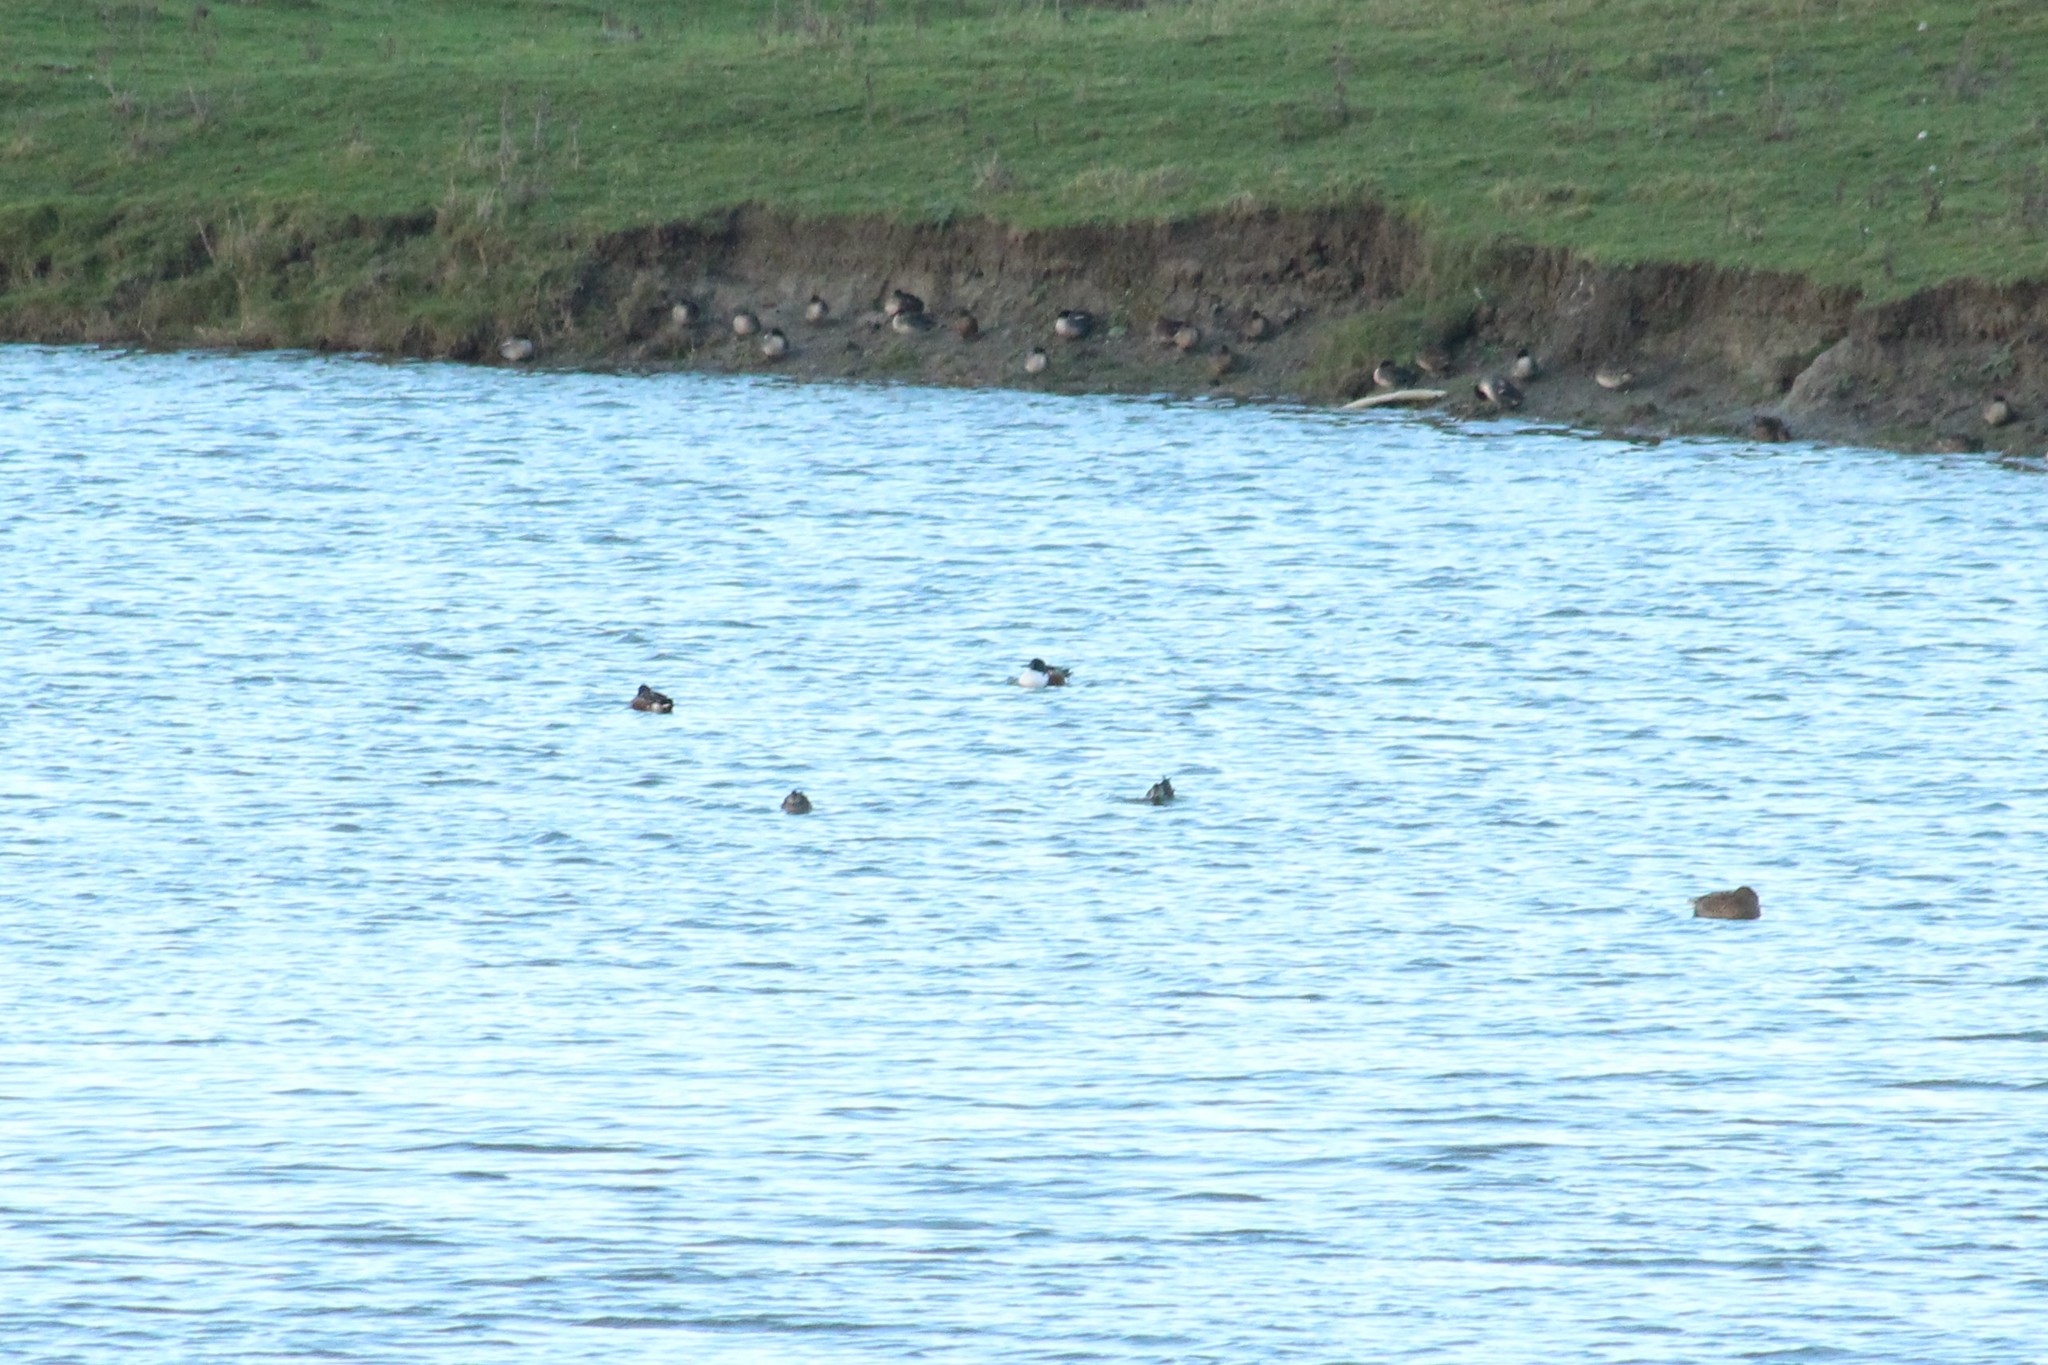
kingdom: Animalia
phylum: Chordata
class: Aves
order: Anseriformes
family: Anatidae
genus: Spatula
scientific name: Spatula clypeata
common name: Northern shoveler
